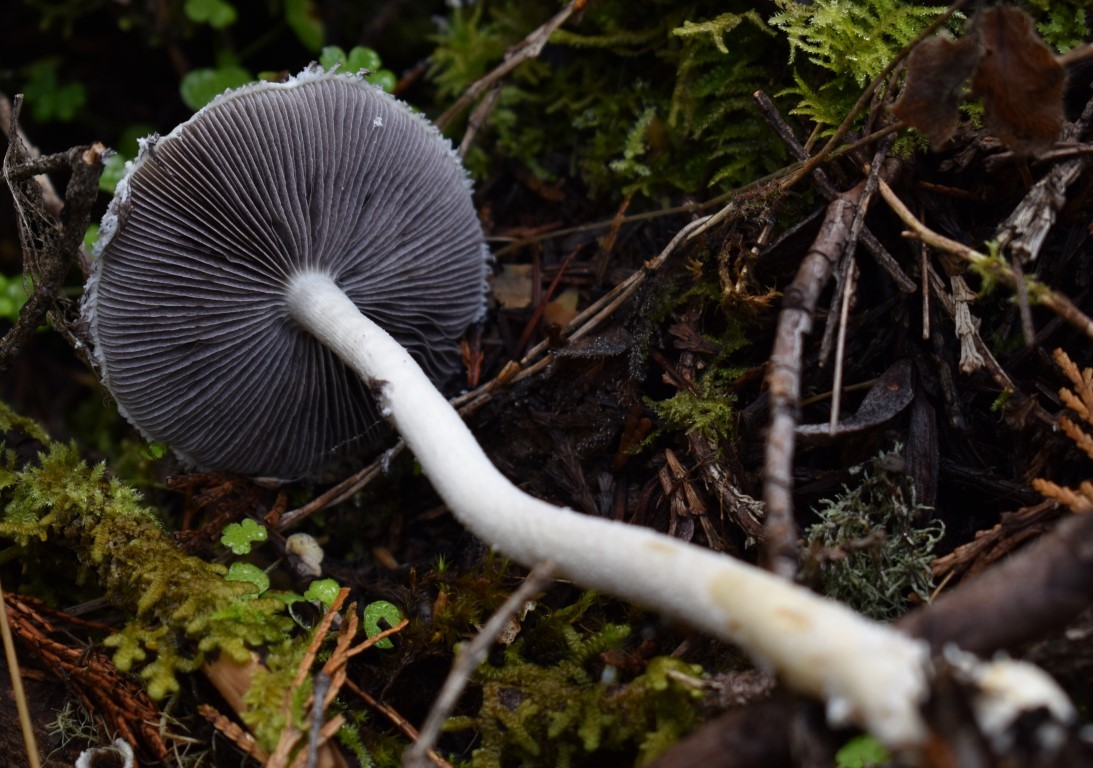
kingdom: Fungi
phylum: Basidiomycota
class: Agaricomycetes
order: Agaricales
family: Strophariaceae
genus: Stropharia
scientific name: Stropharia ambigua
